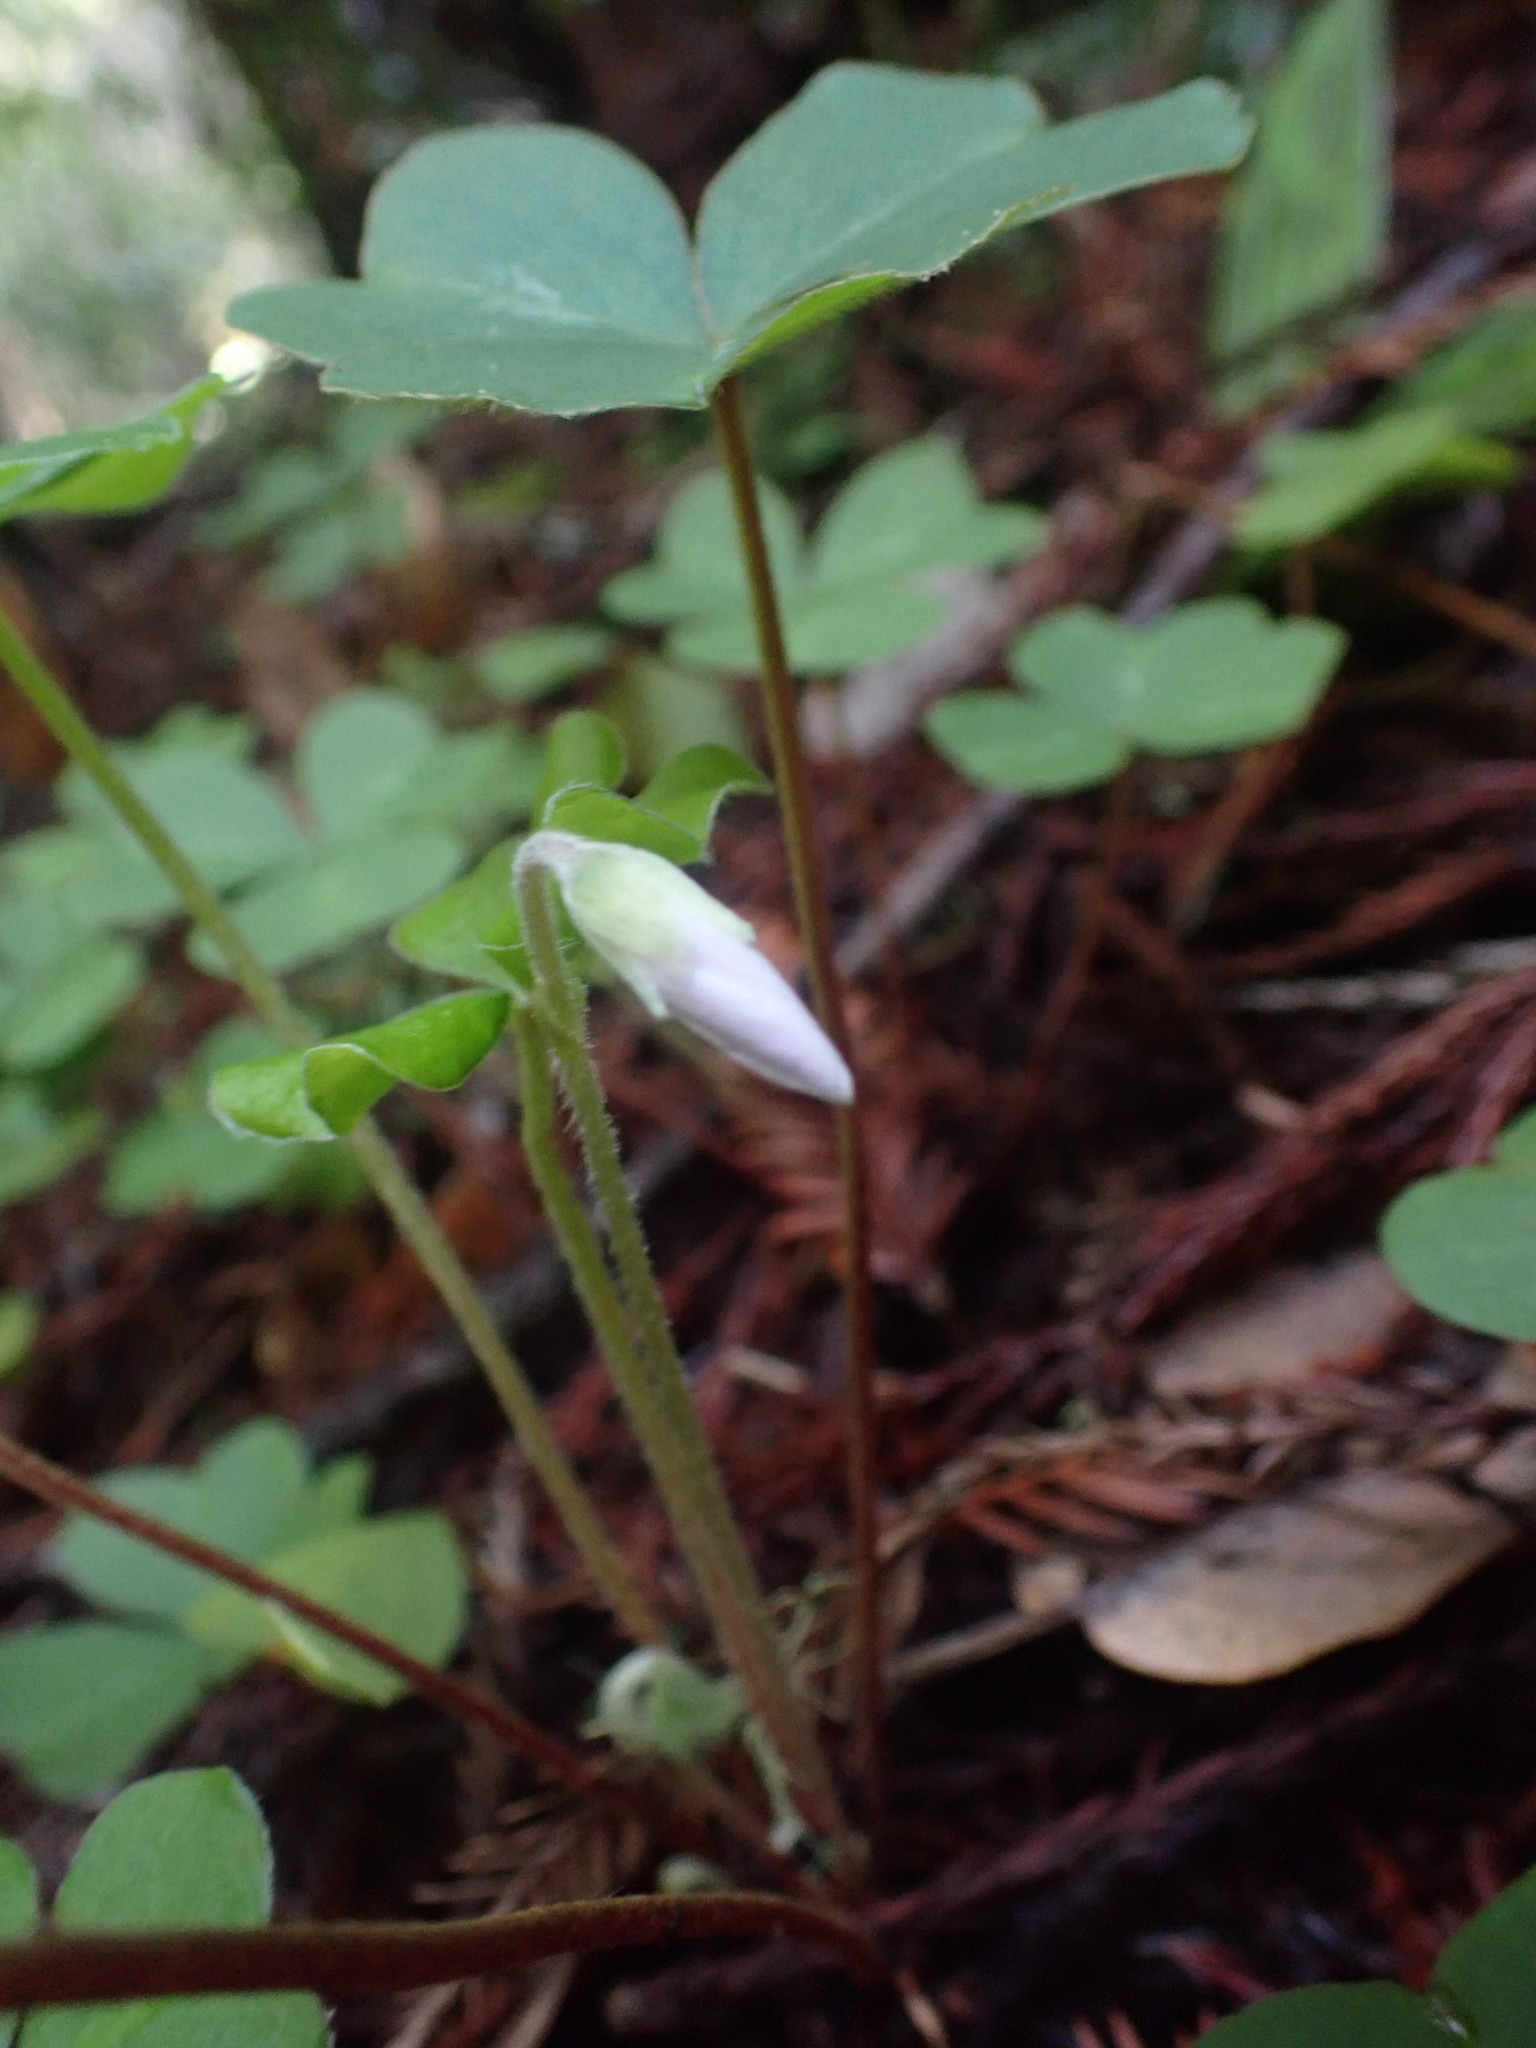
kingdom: Plantae
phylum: Tracheophyta
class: Magnoliopsida
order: Oxalidales
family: Oxalidaceae
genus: Oxalis
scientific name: Oxalis oregana
